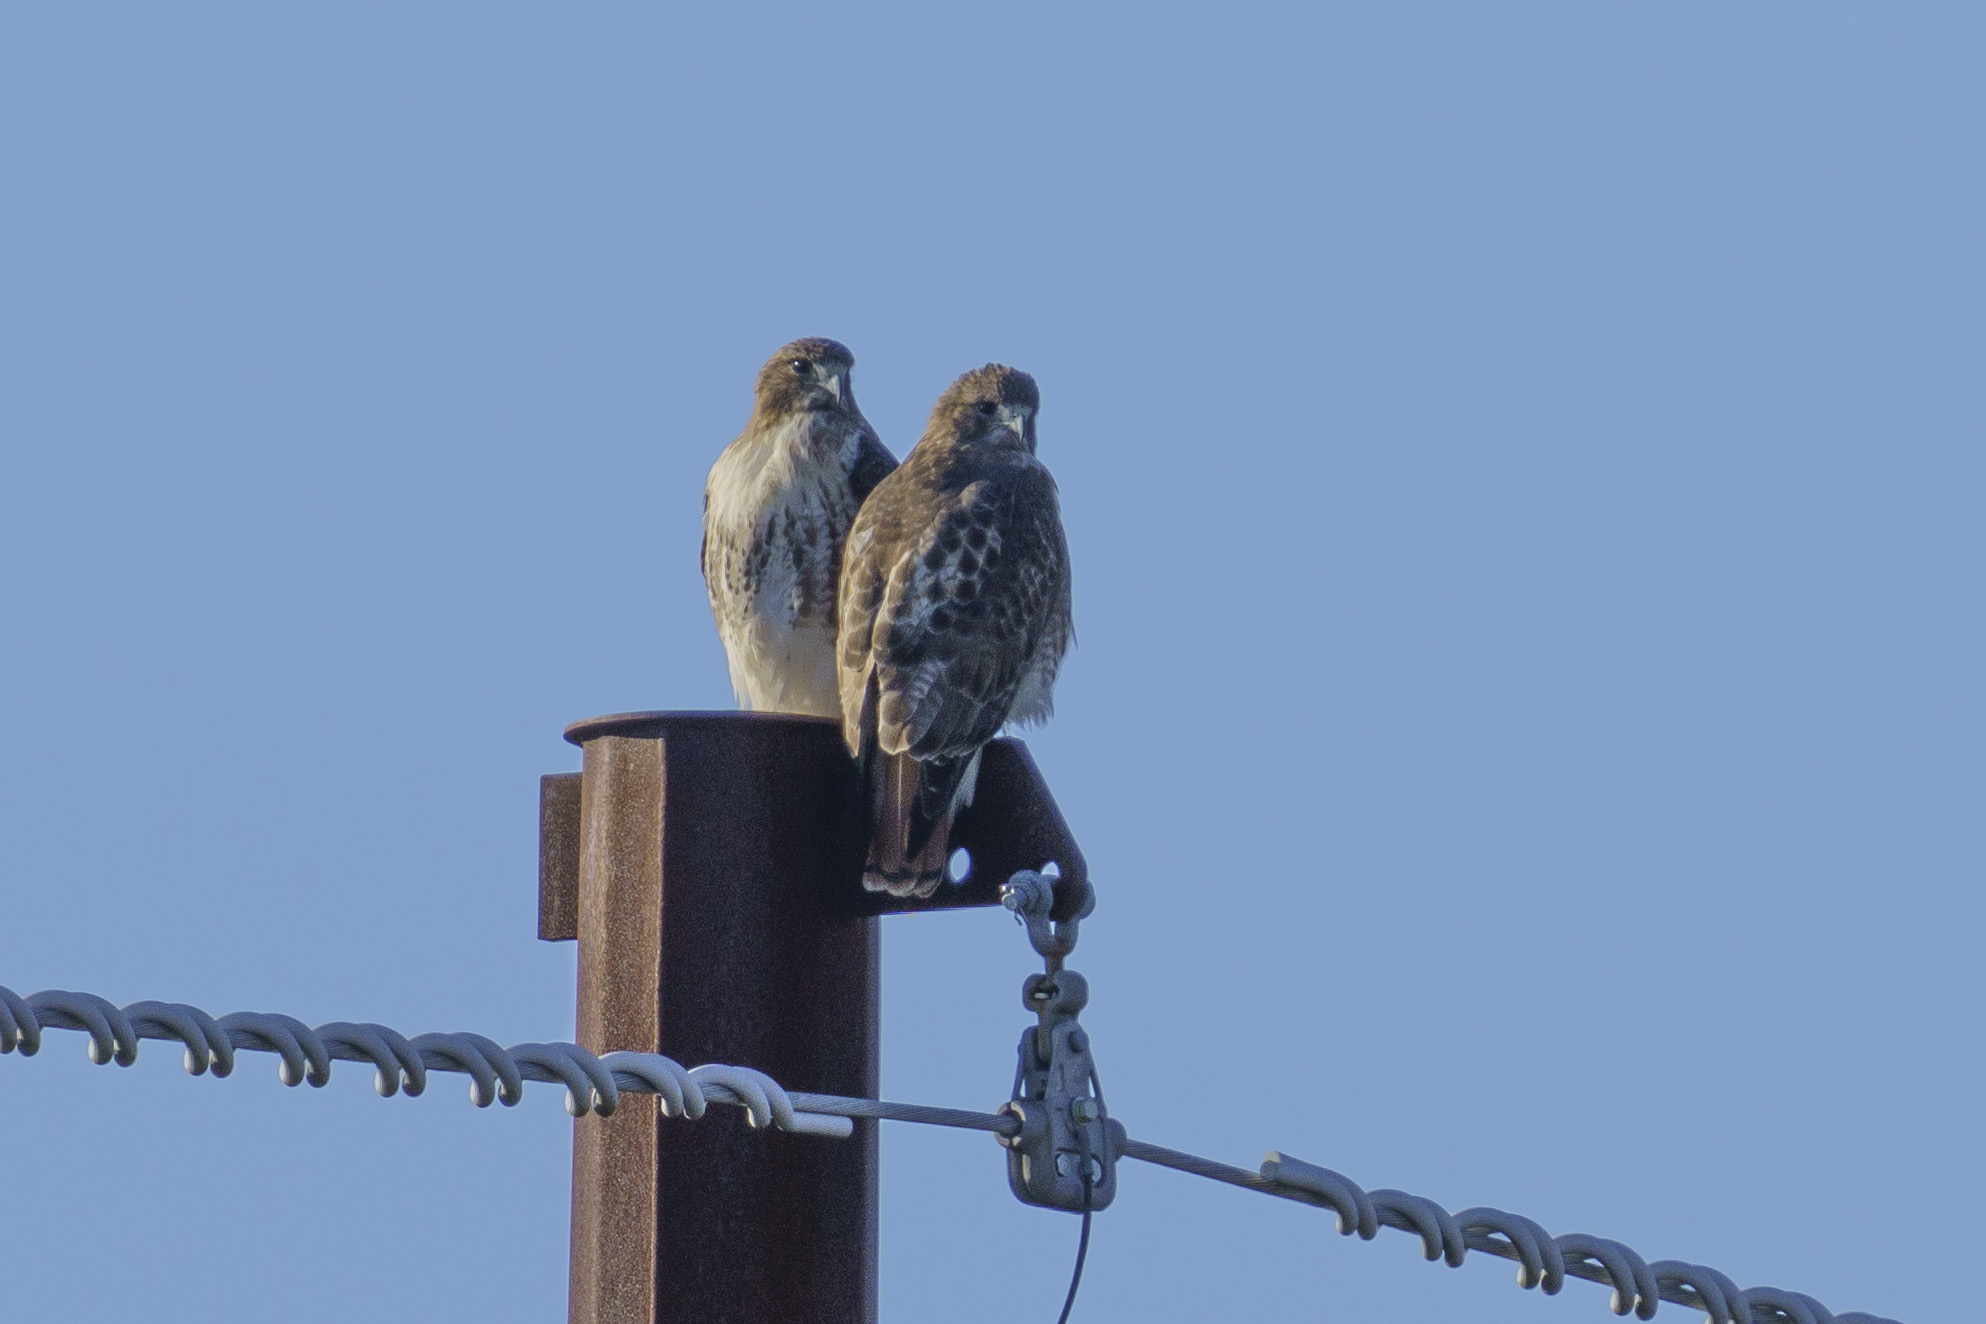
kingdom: Animalia
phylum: Chordata
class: Aves
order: Accipitriformes
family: Accipitridae
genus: Buteo
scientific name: Buteo jamaicensis
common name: Red-tailed hawk
